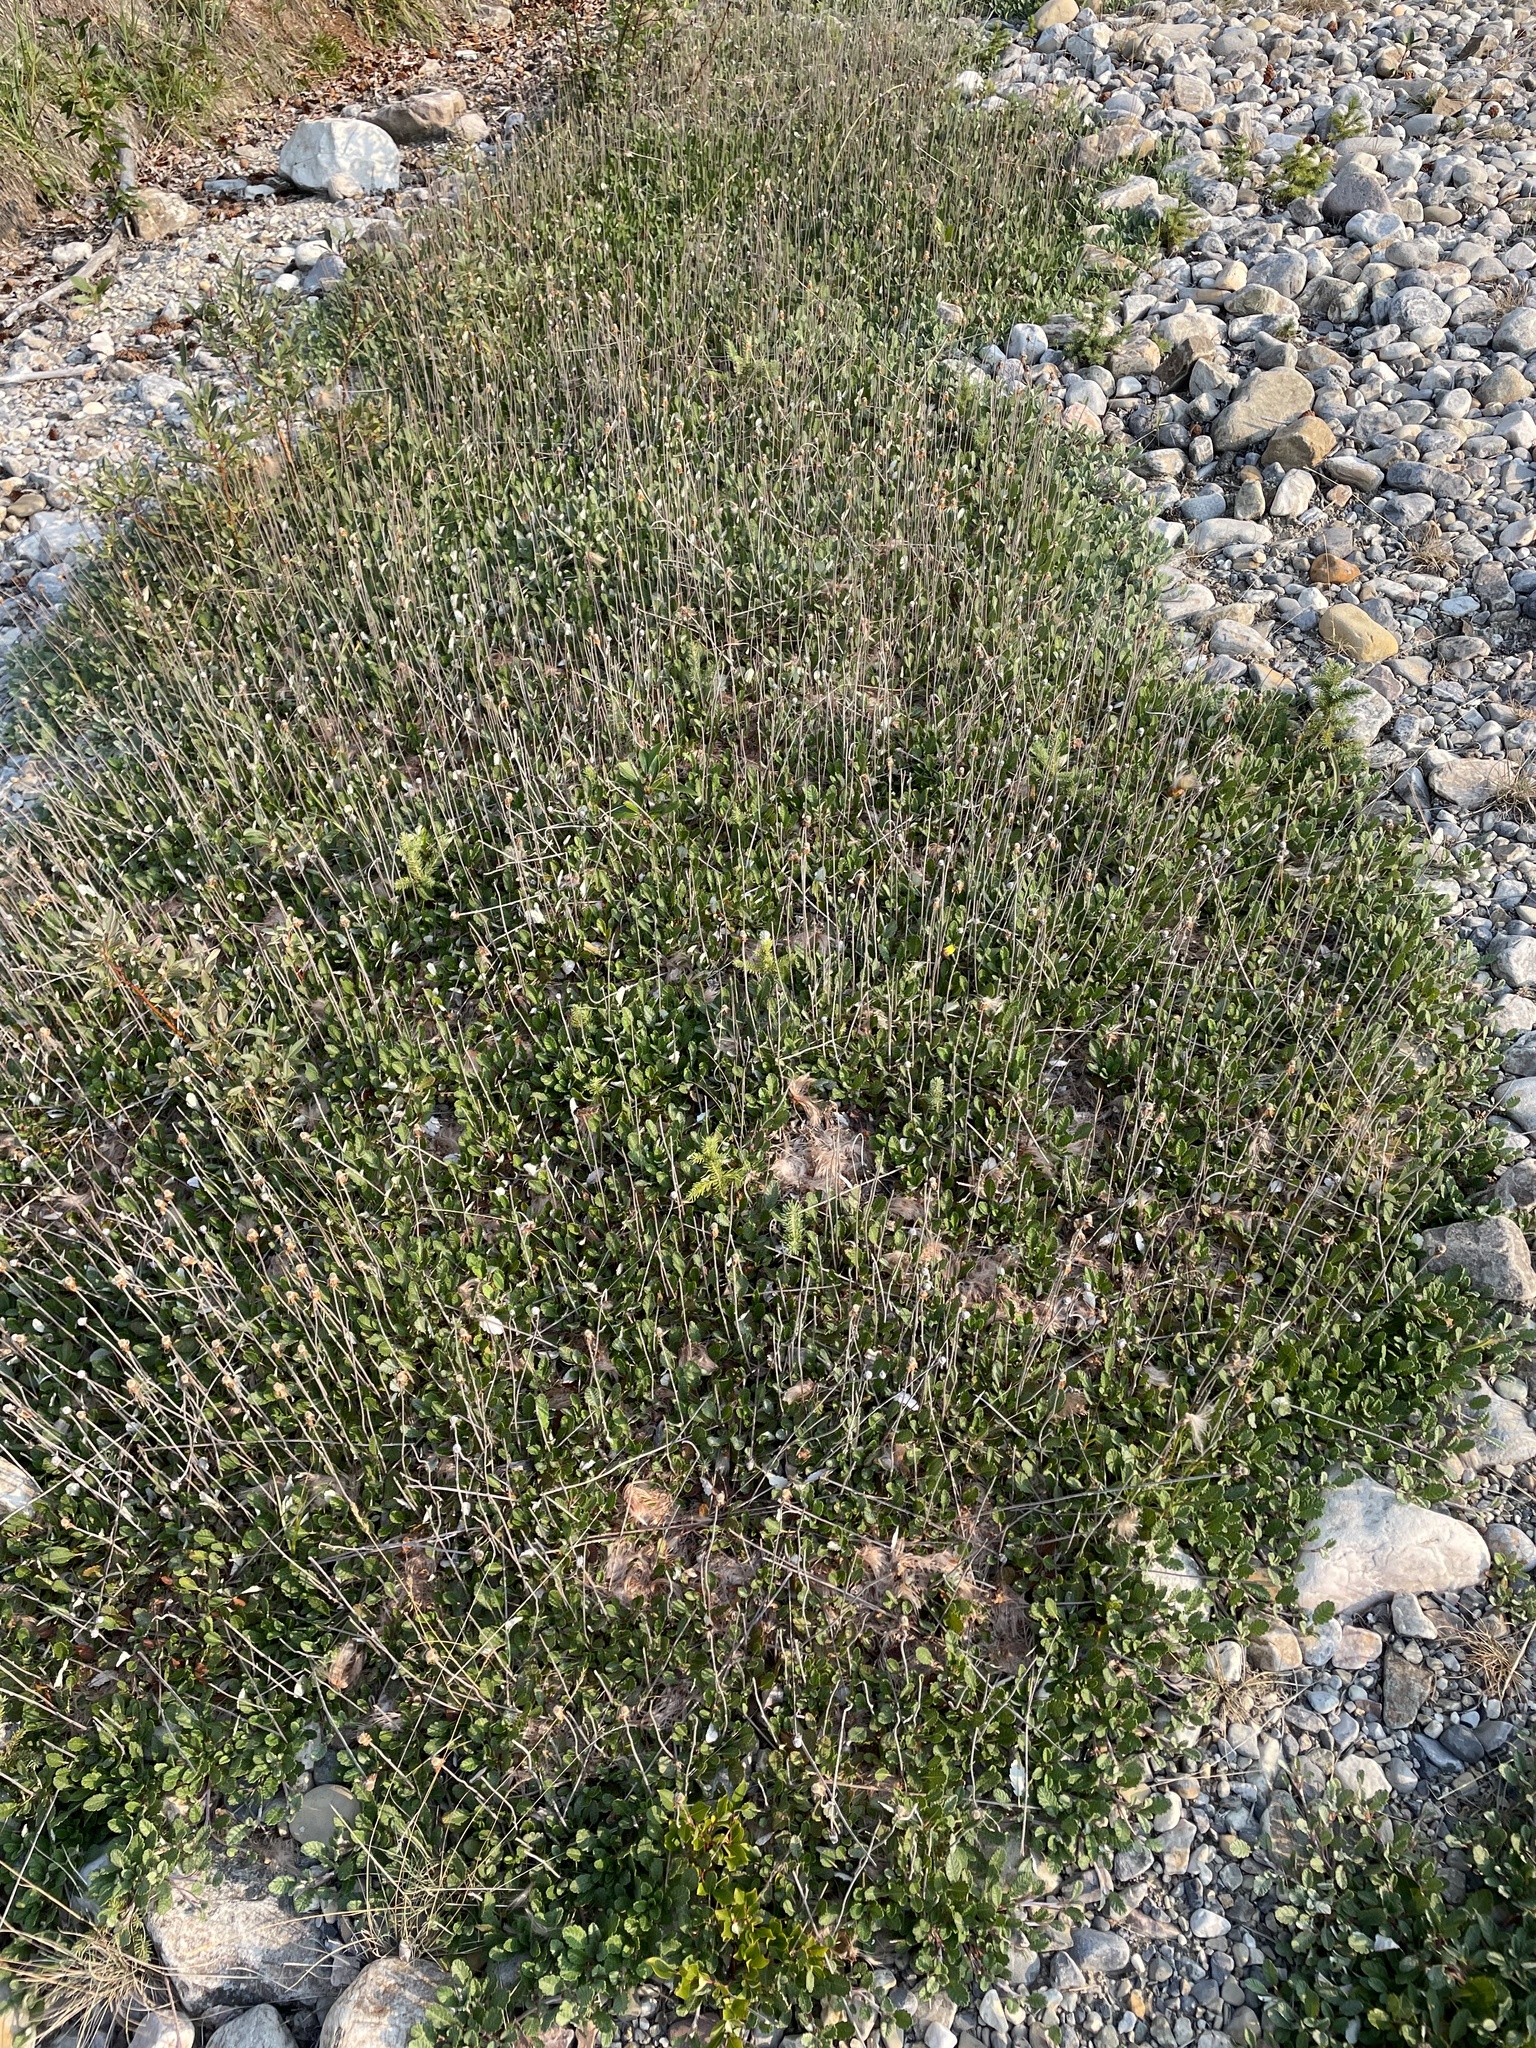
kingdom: Plantae
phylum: Tracheophyta
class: Magnoliopsida
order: Rosales
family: Rosaceae
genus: Dryas
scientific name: Dryas drummondii
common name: Drummond's dryad
